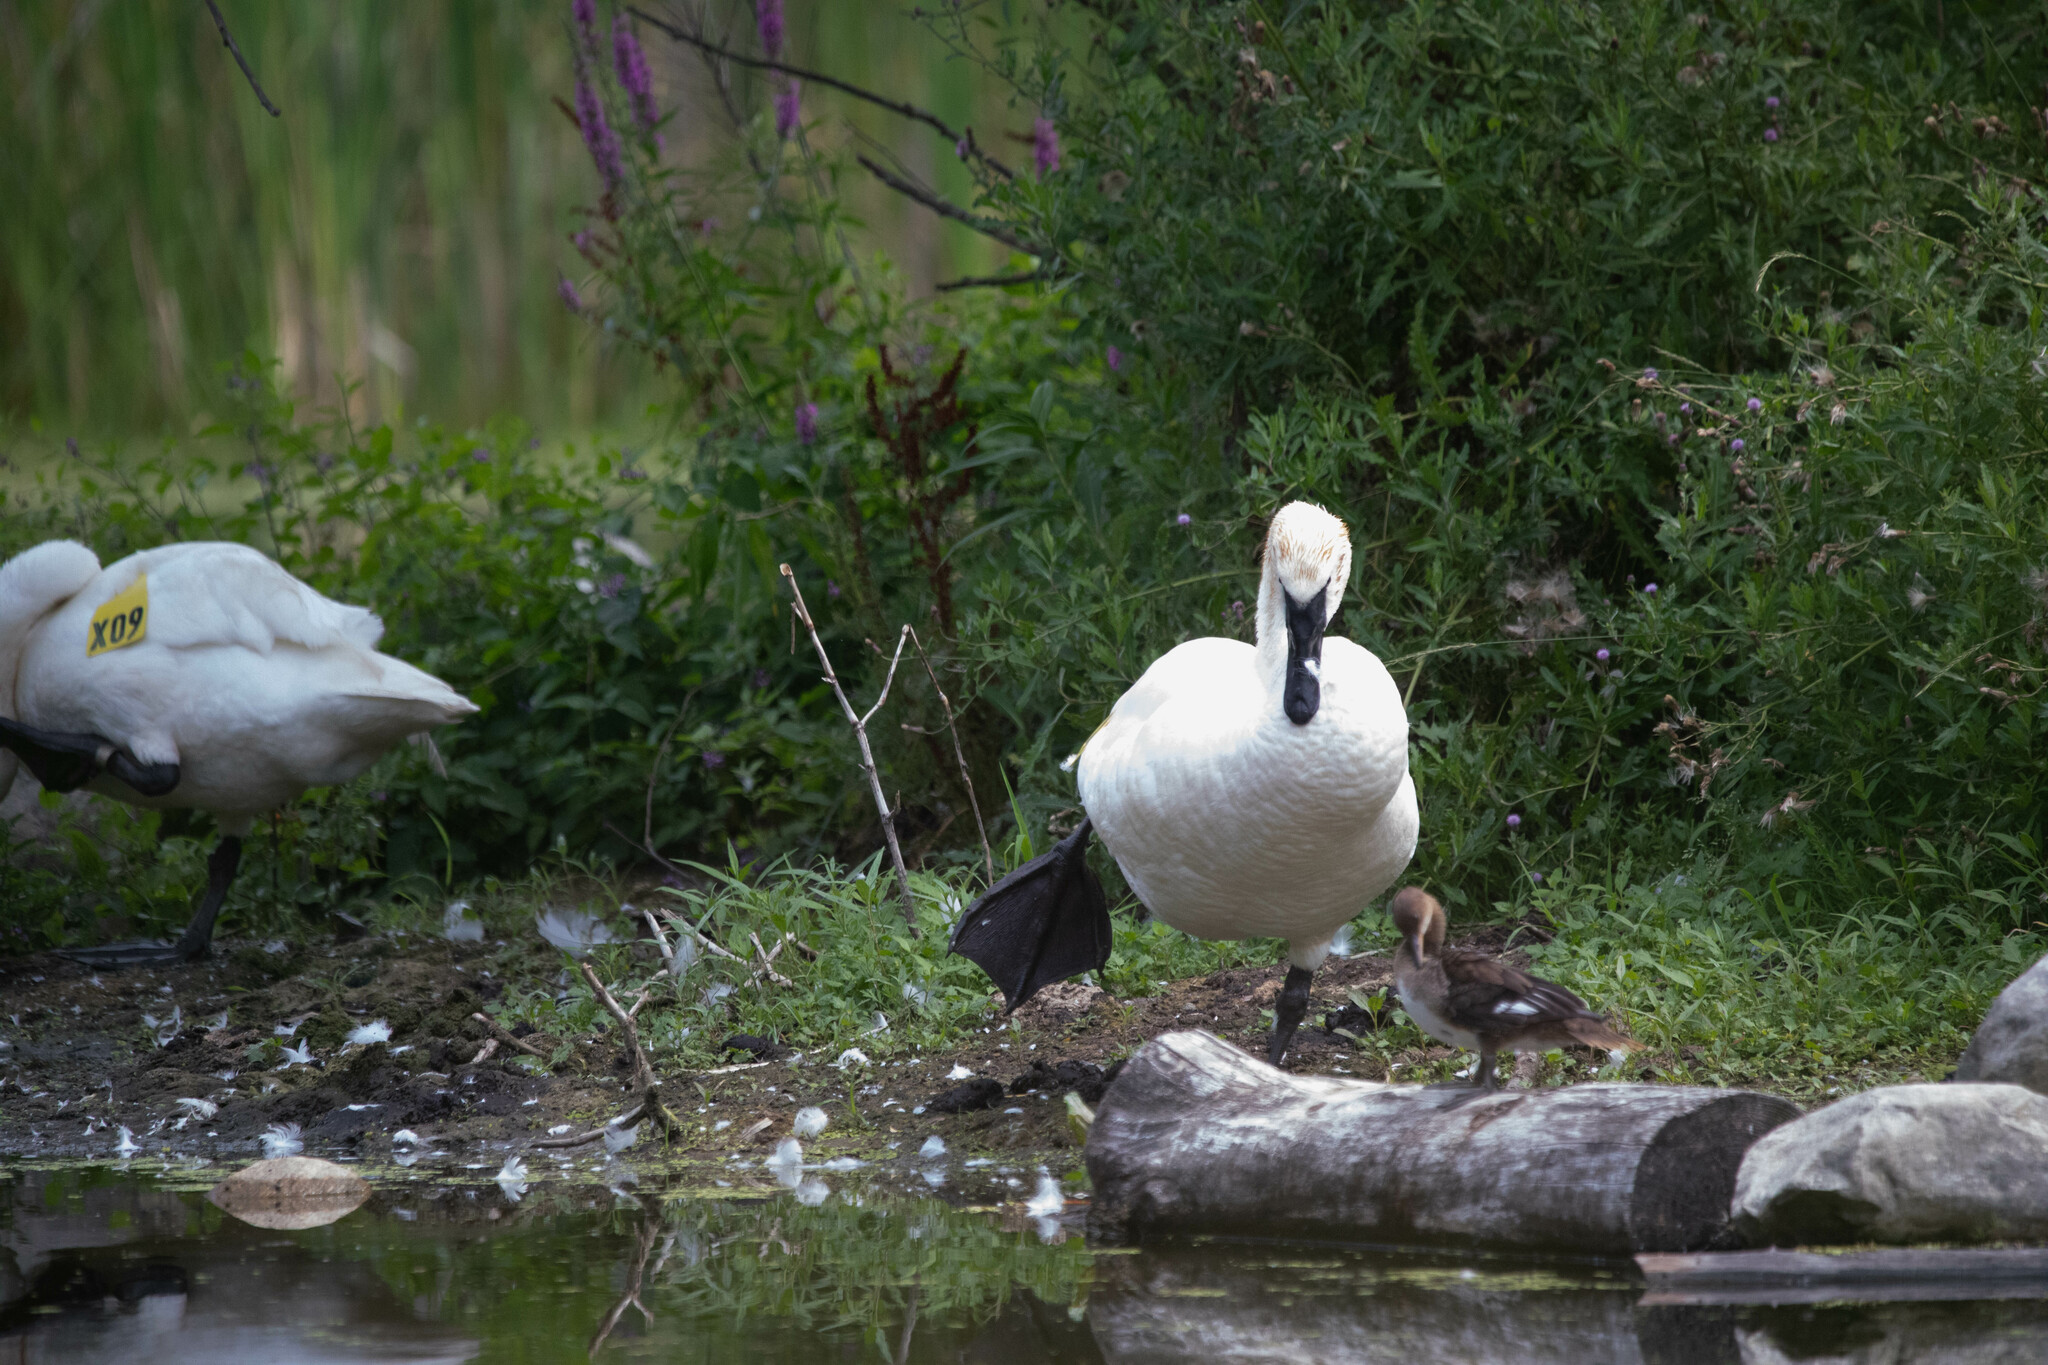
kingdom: Animalia
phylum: Chordata
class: Aves
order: Anseriformes
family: Anatidae
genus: Cygnus
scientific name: Cygnus buccinator
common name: Trumpeter swan
